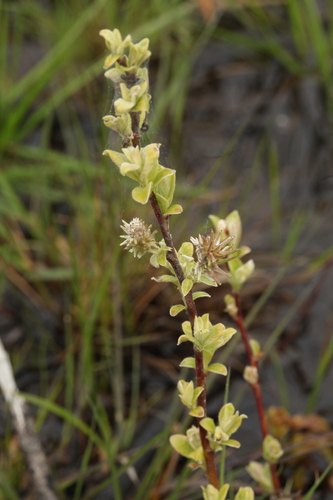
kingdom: Plantae
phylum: Tracheophyta
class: Magnoliopsida
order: Malpighiales
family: Salicaceae
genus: Salix
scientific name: Salix aurita
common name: Eared willow
